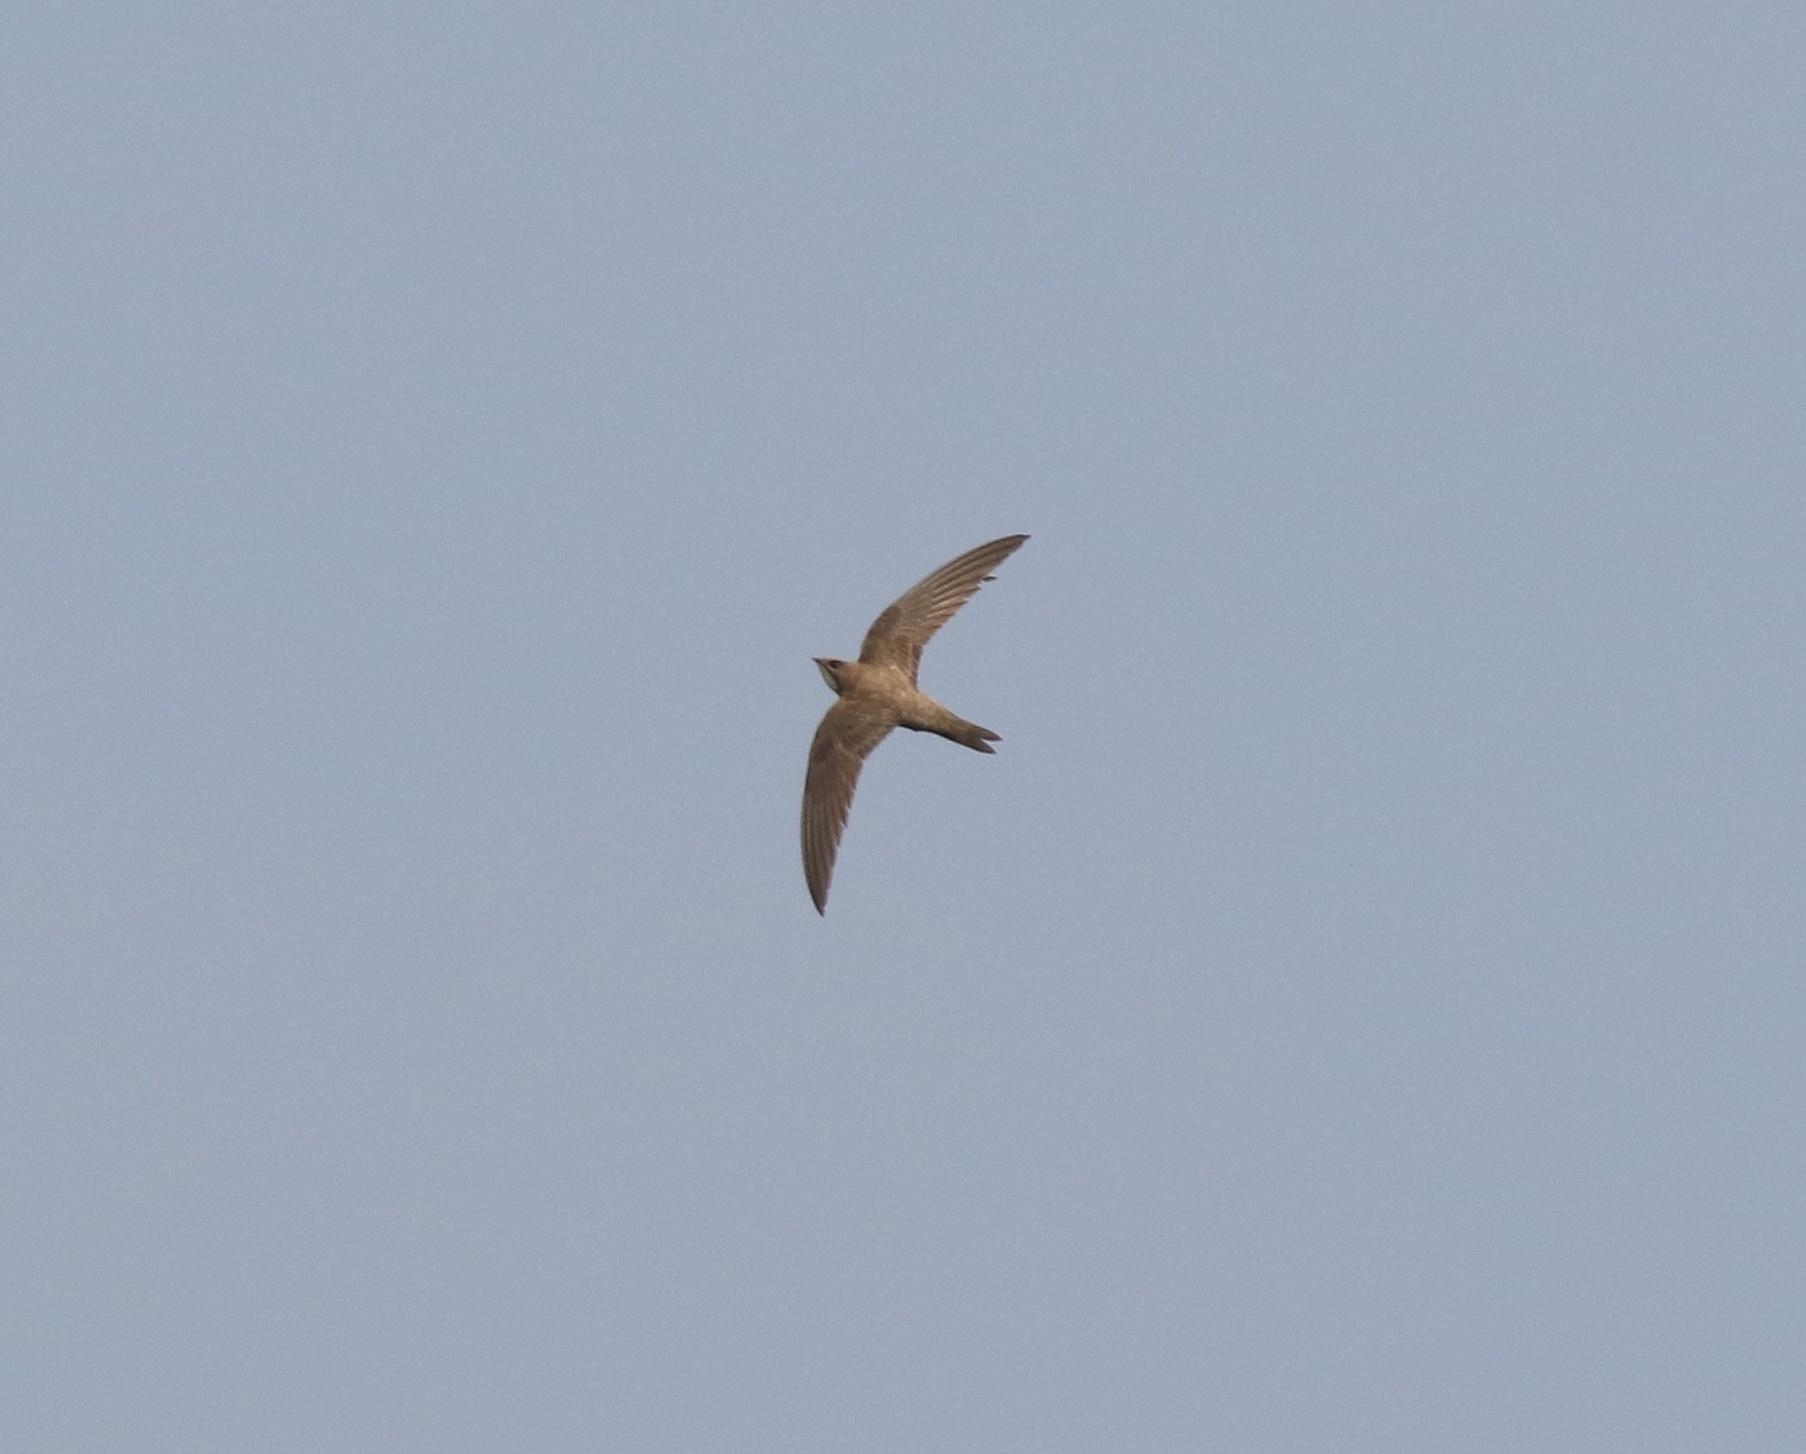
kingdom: Animalia
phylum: Chordata
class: Aves
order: Apodiformes
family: Apodidae
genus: Tachymarptis
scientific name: Tachymarptis melba
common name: Alpine swift
